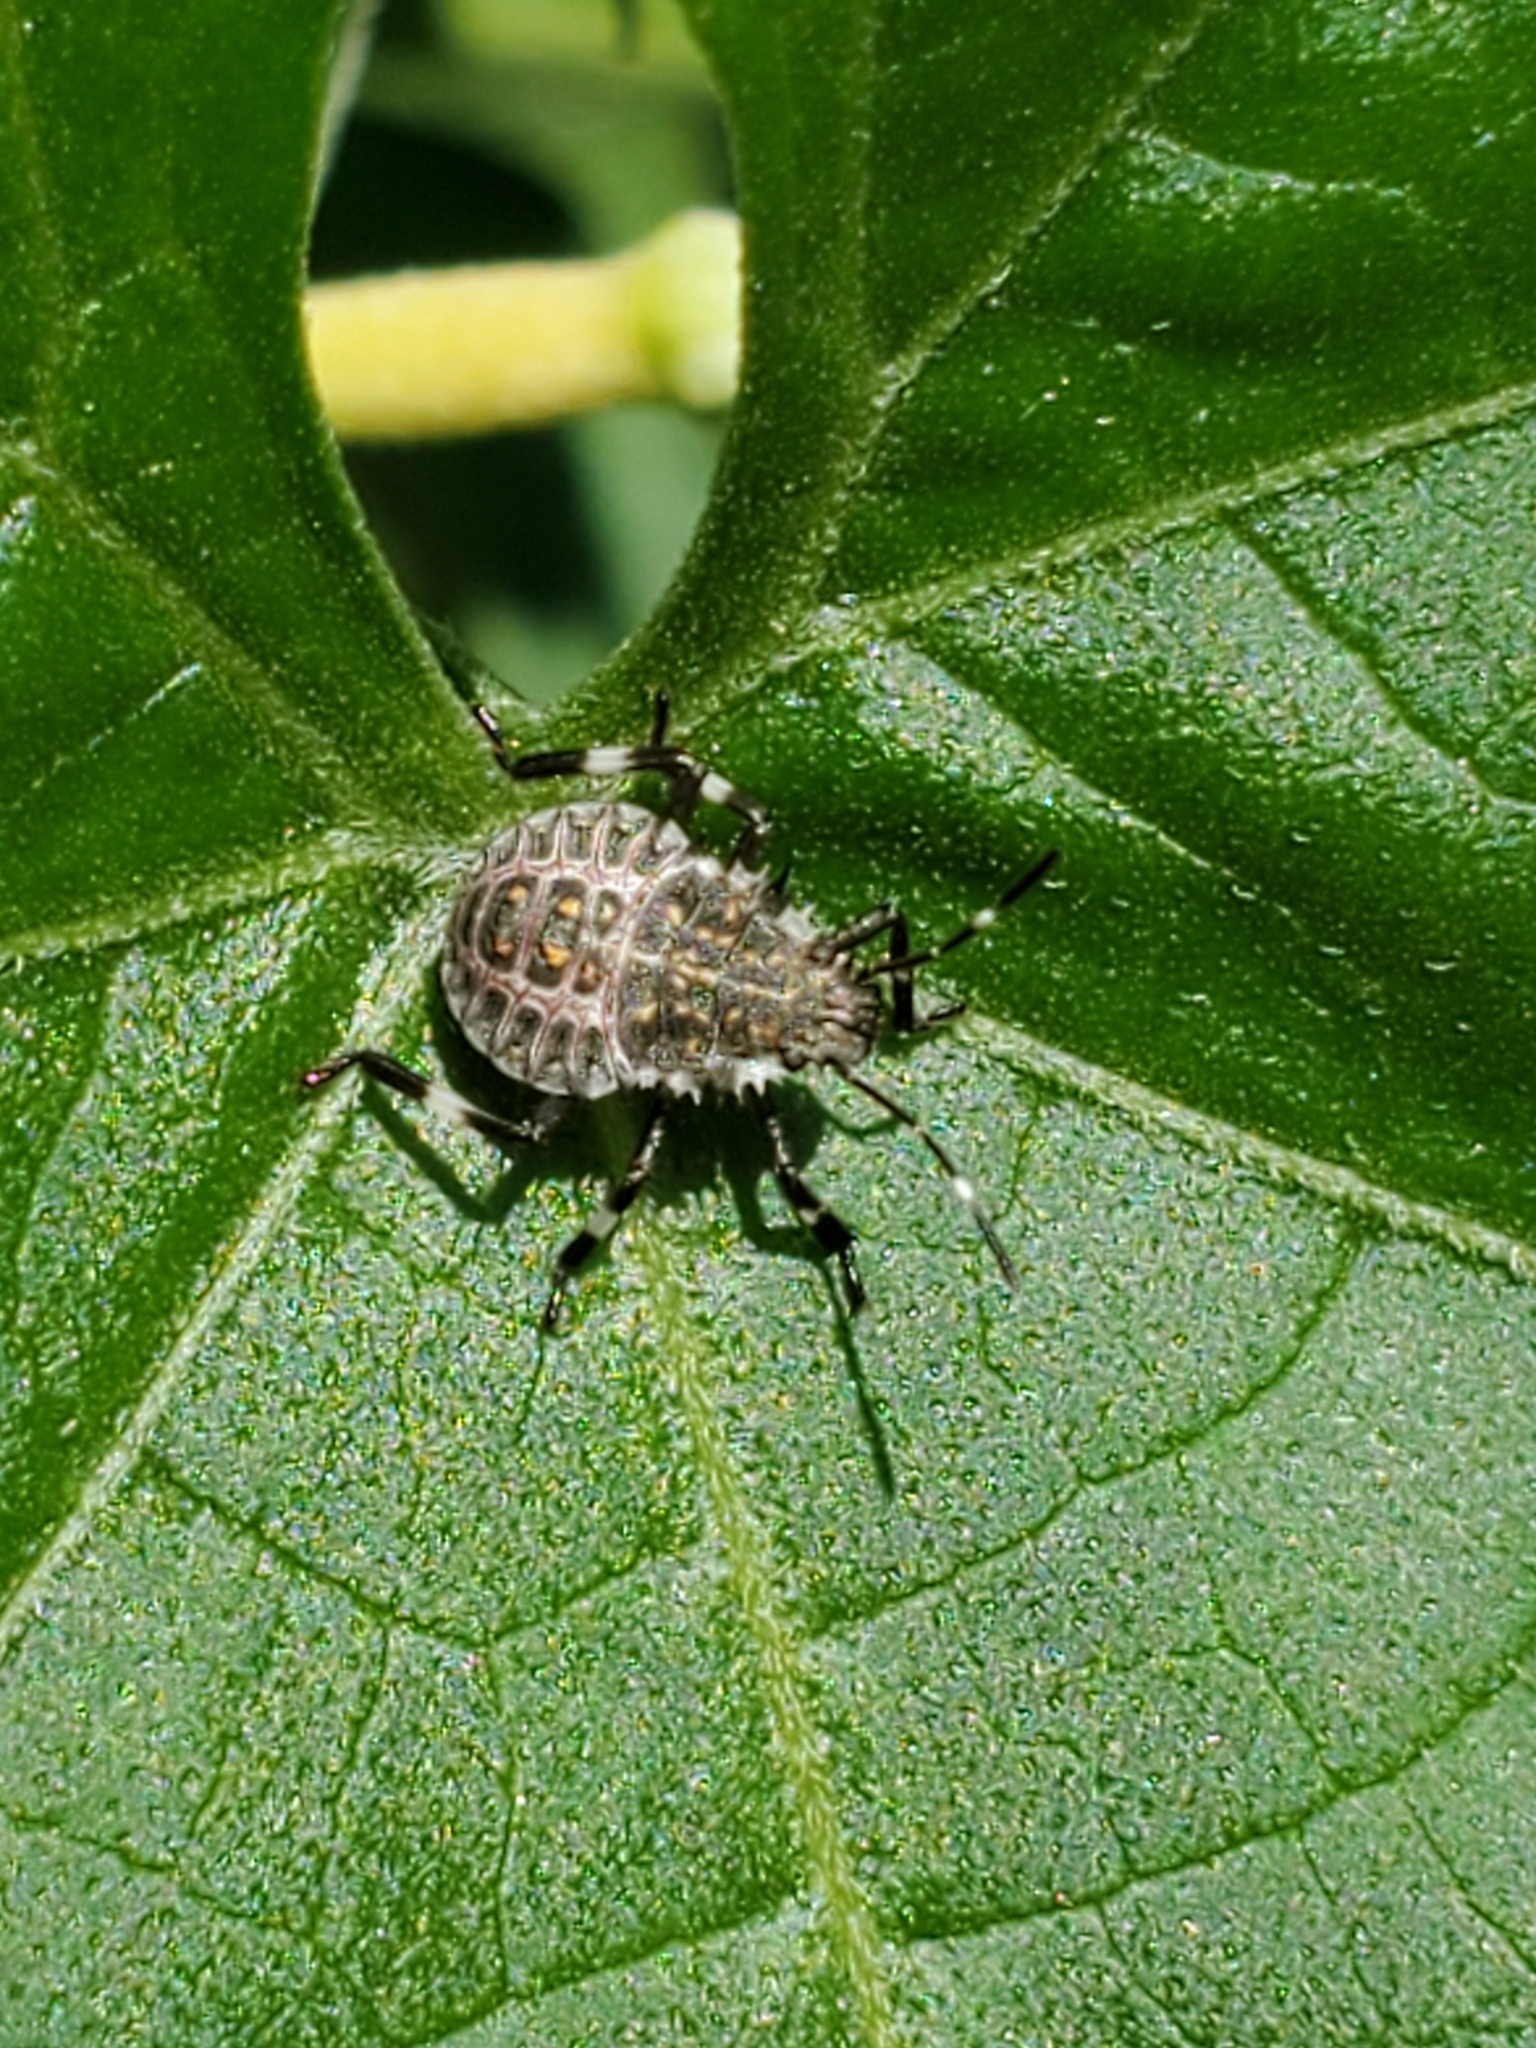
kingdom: Animalia
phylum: Arthropoda
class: Insecta
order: Hemiptera
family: Pentatomidae
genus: Halyomorpha
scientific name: Halyomorpha halys
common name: Brown marmorated stink bug
